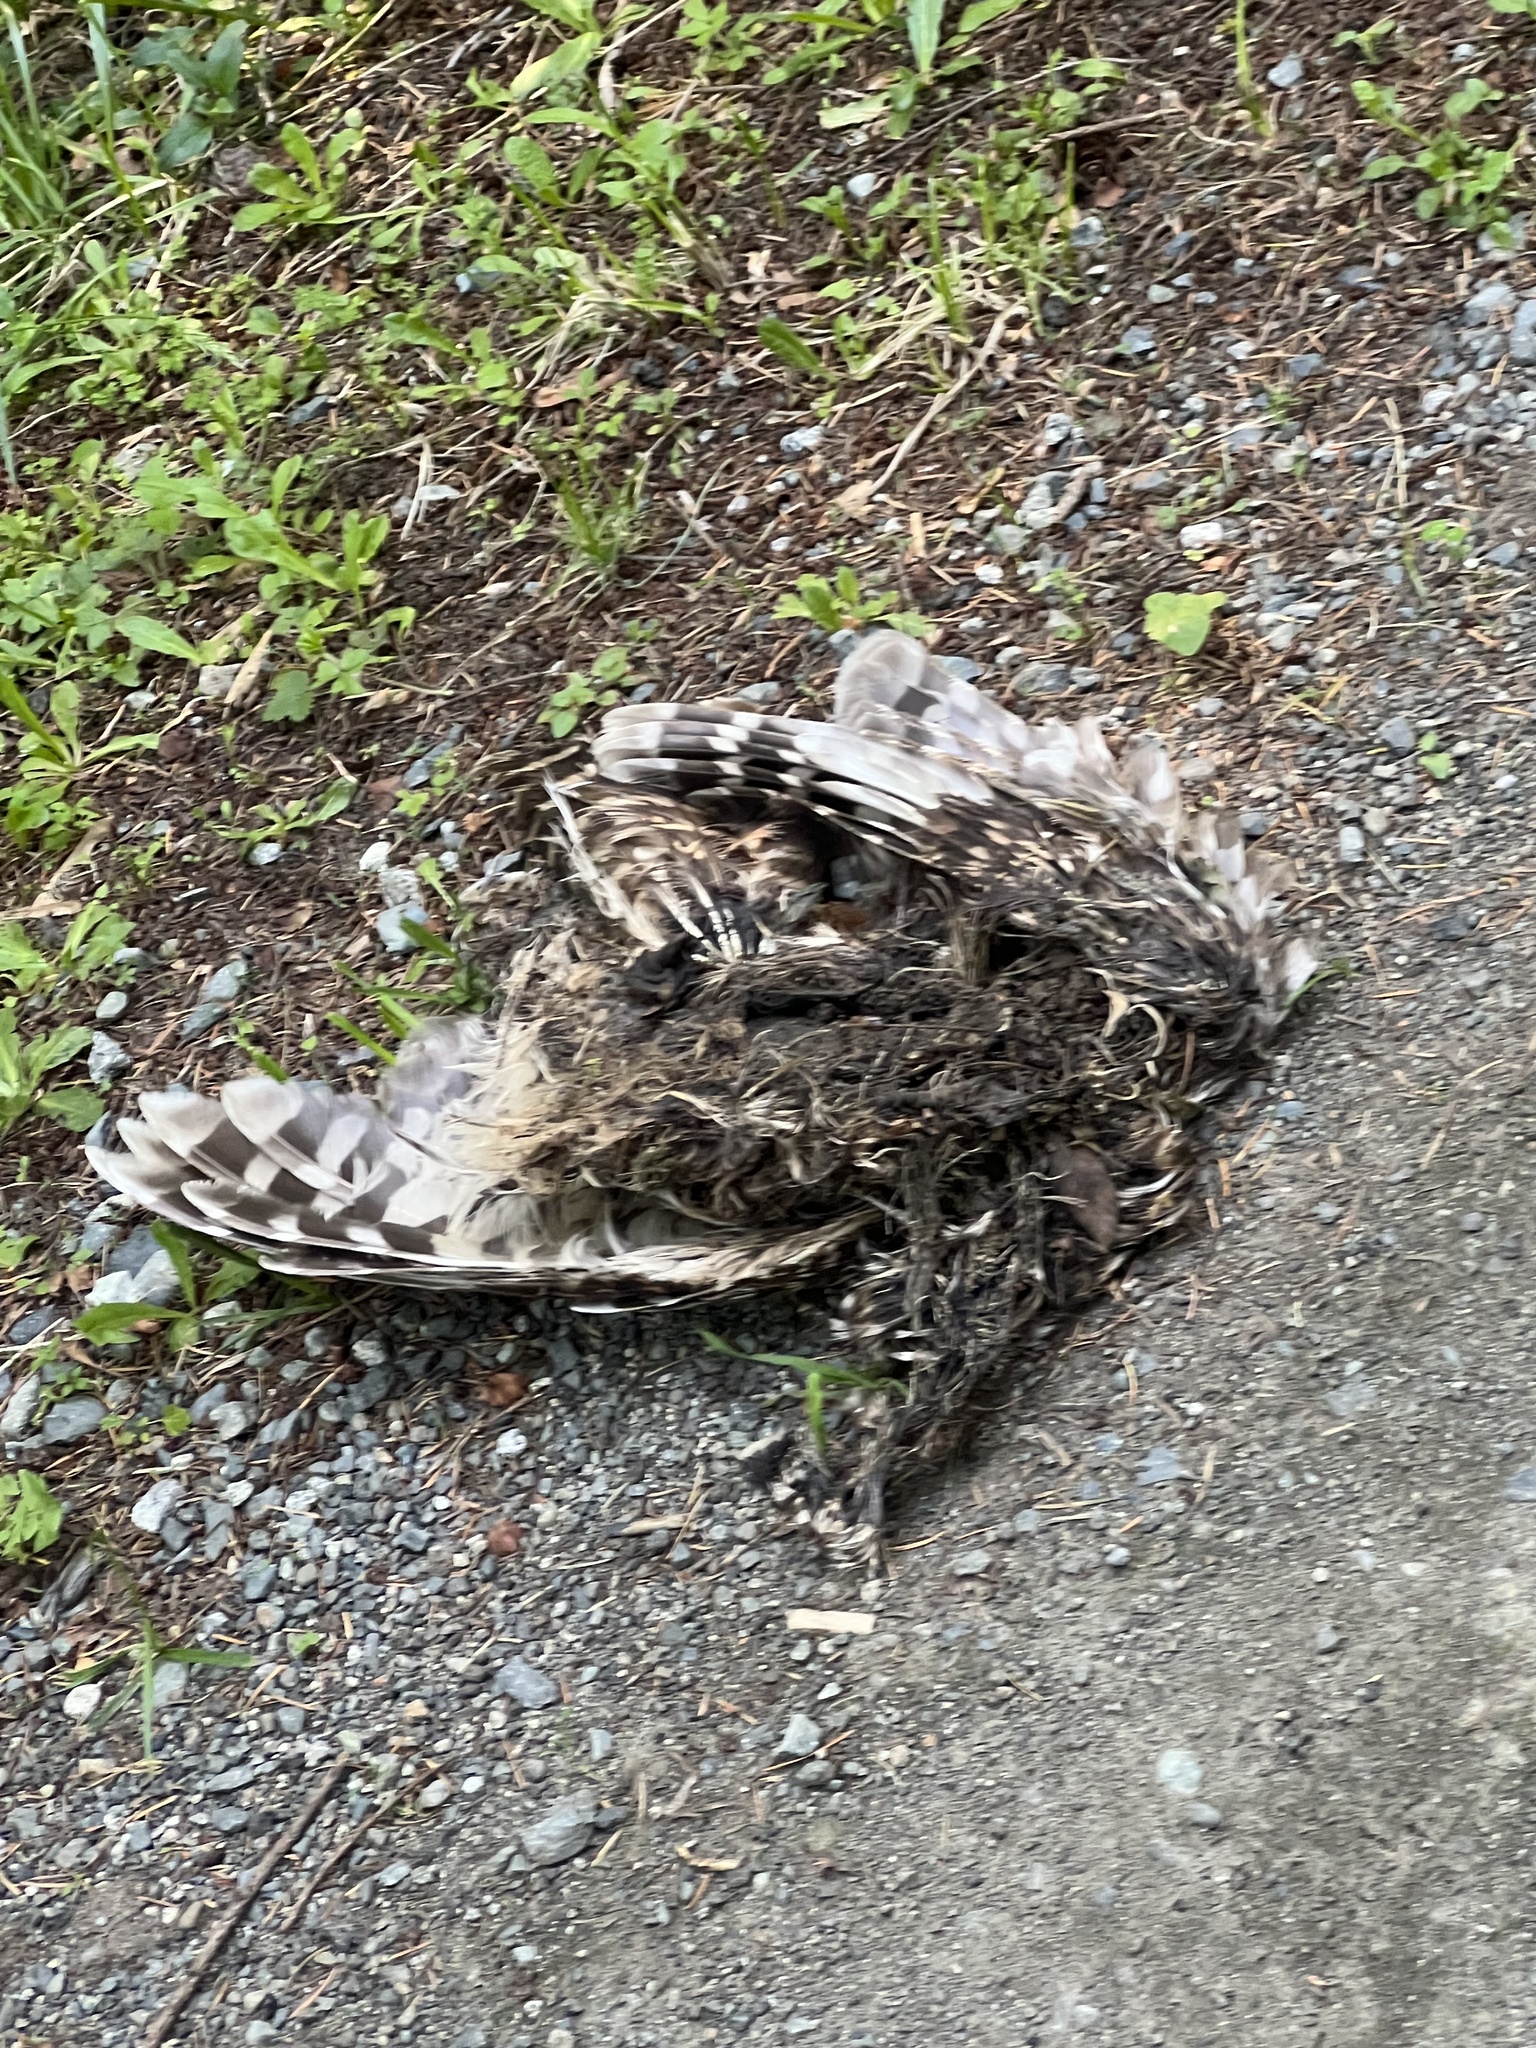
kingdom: Animalia
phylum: Chordata
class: Aves
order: Strigiformes
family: Strigidae
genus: Strix
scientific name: Strix varia
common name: Barred owl
